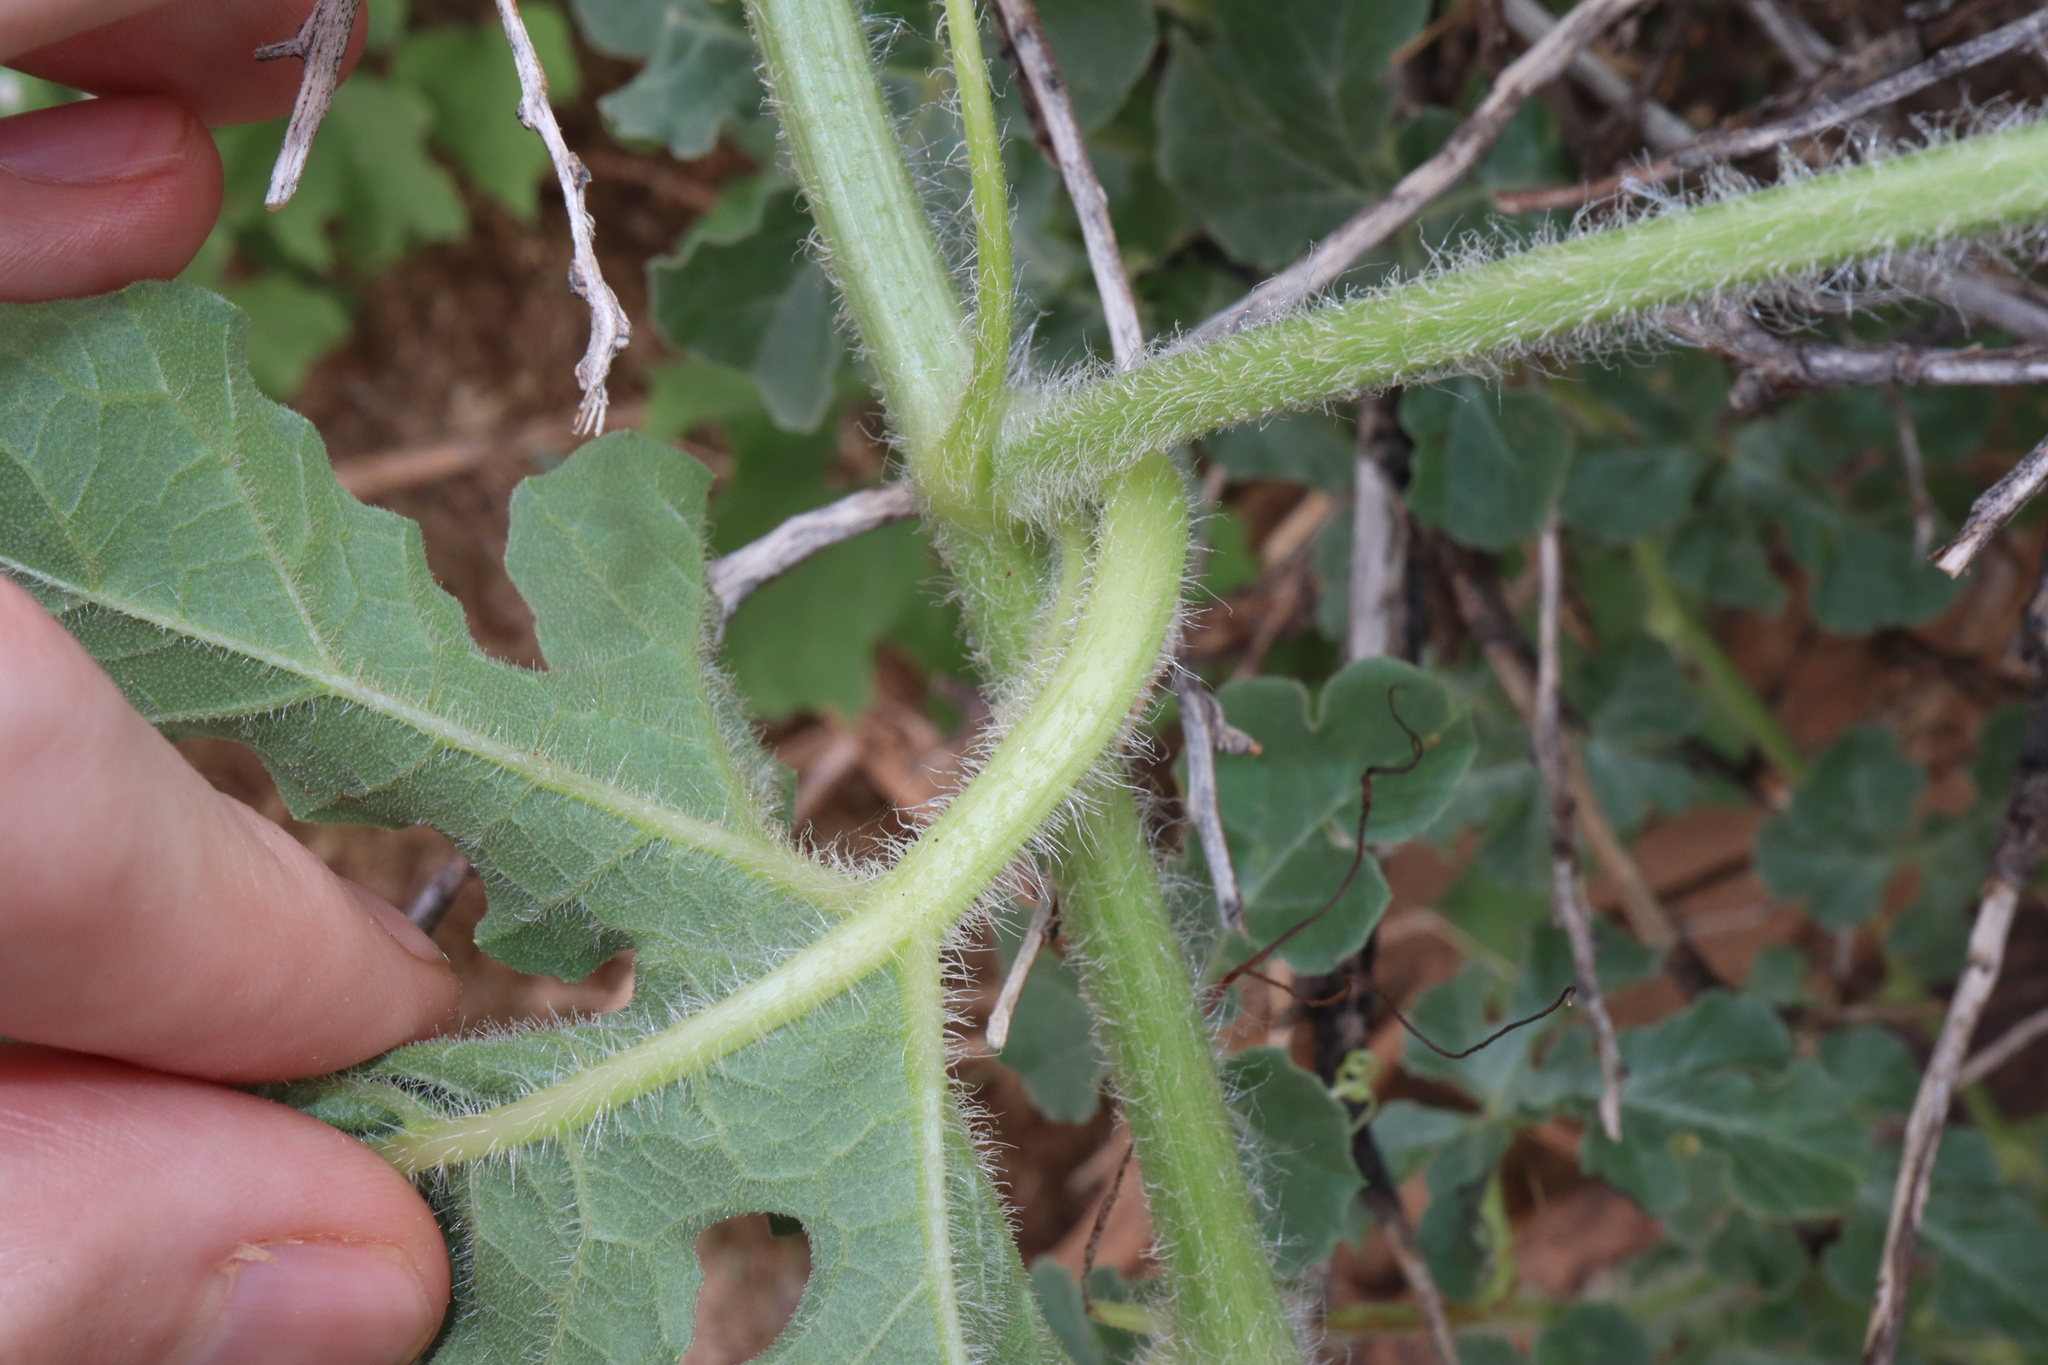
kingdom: Plantae
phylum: Tracheophyta
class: Magnoliopsida
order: Cucurbitales
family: Cucurbitaceae
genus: Citrullus
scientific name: Citrullus amarus
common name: Fodder-melon
